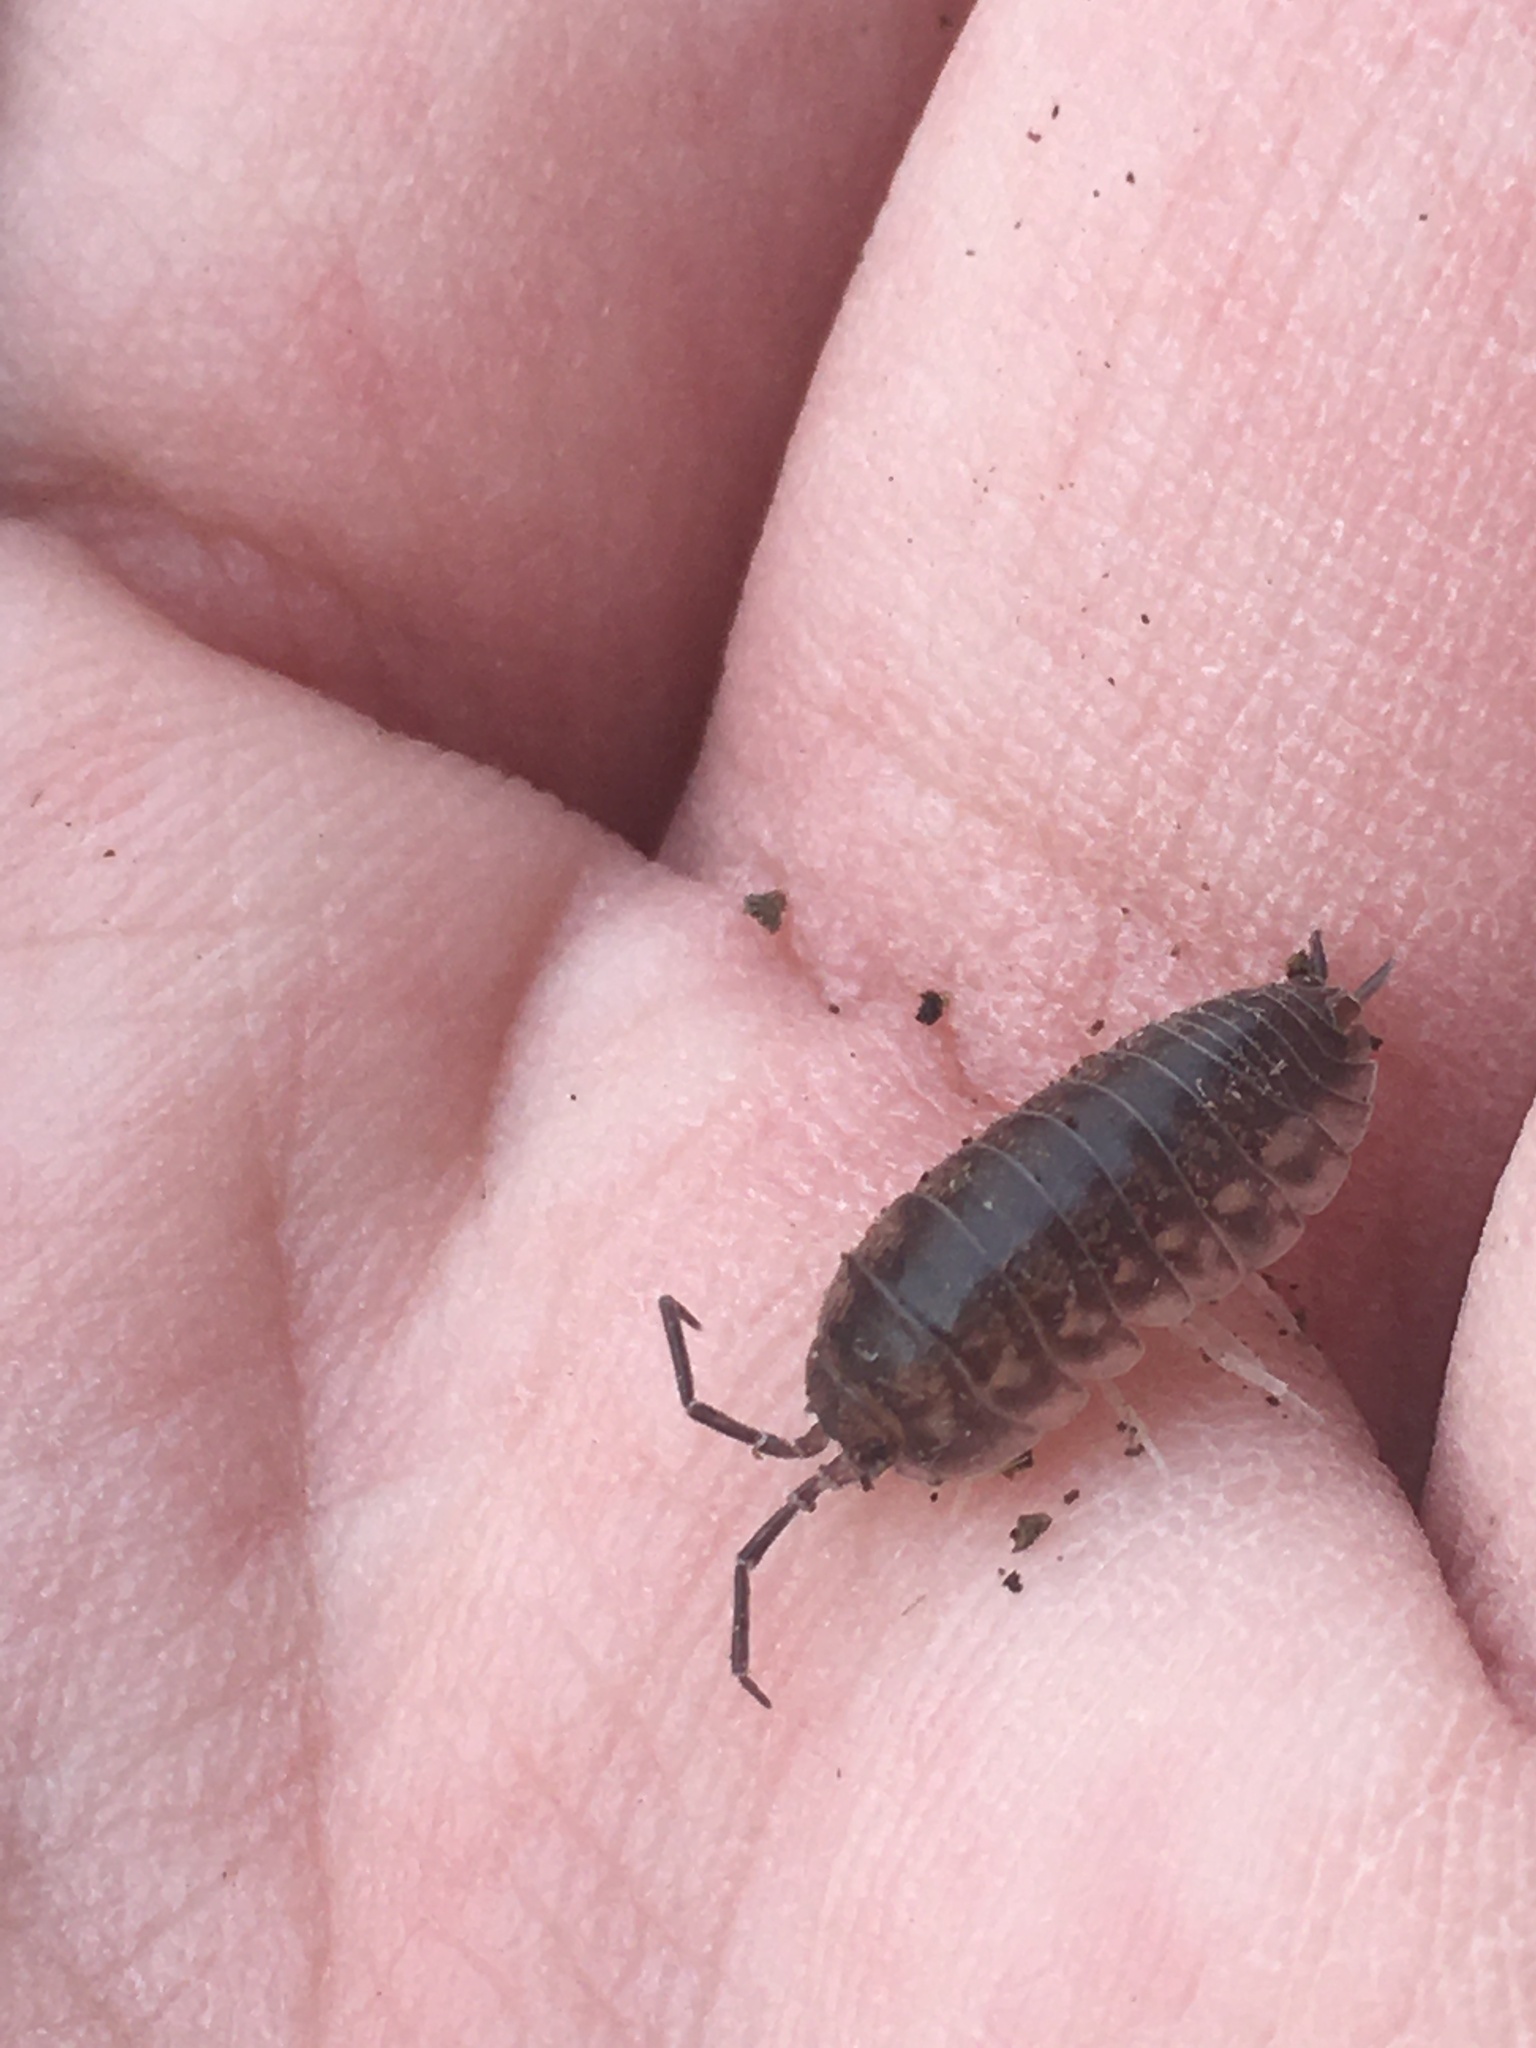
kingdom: Animalia
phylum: Arthropoda
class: Malacostraca
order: Isopoda
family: Cylisticidae
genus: Cylisticus
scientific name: Cylisticus convexus
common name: Curly woodlouse
